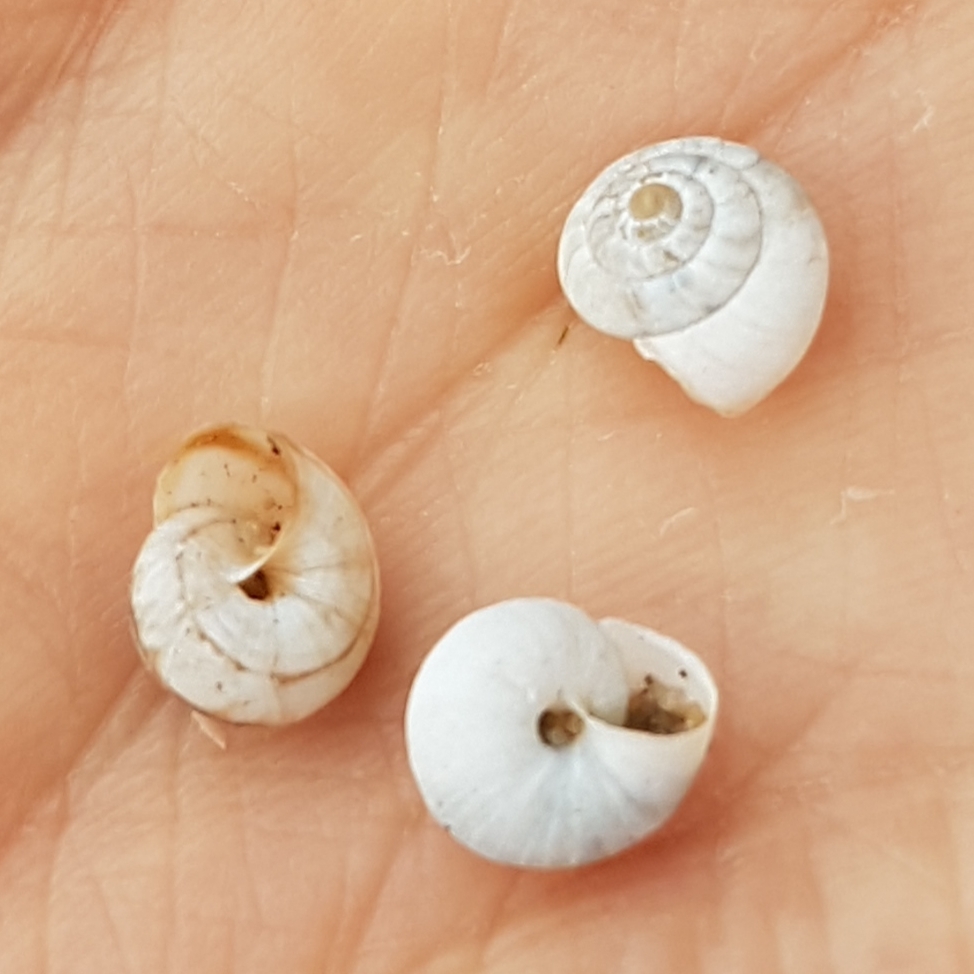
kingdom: Animalia
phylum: Mollusca
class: Gastropoda
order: Stylommatophora
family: Geomitridae
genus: Cernuella
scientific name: Cernuella virgata
